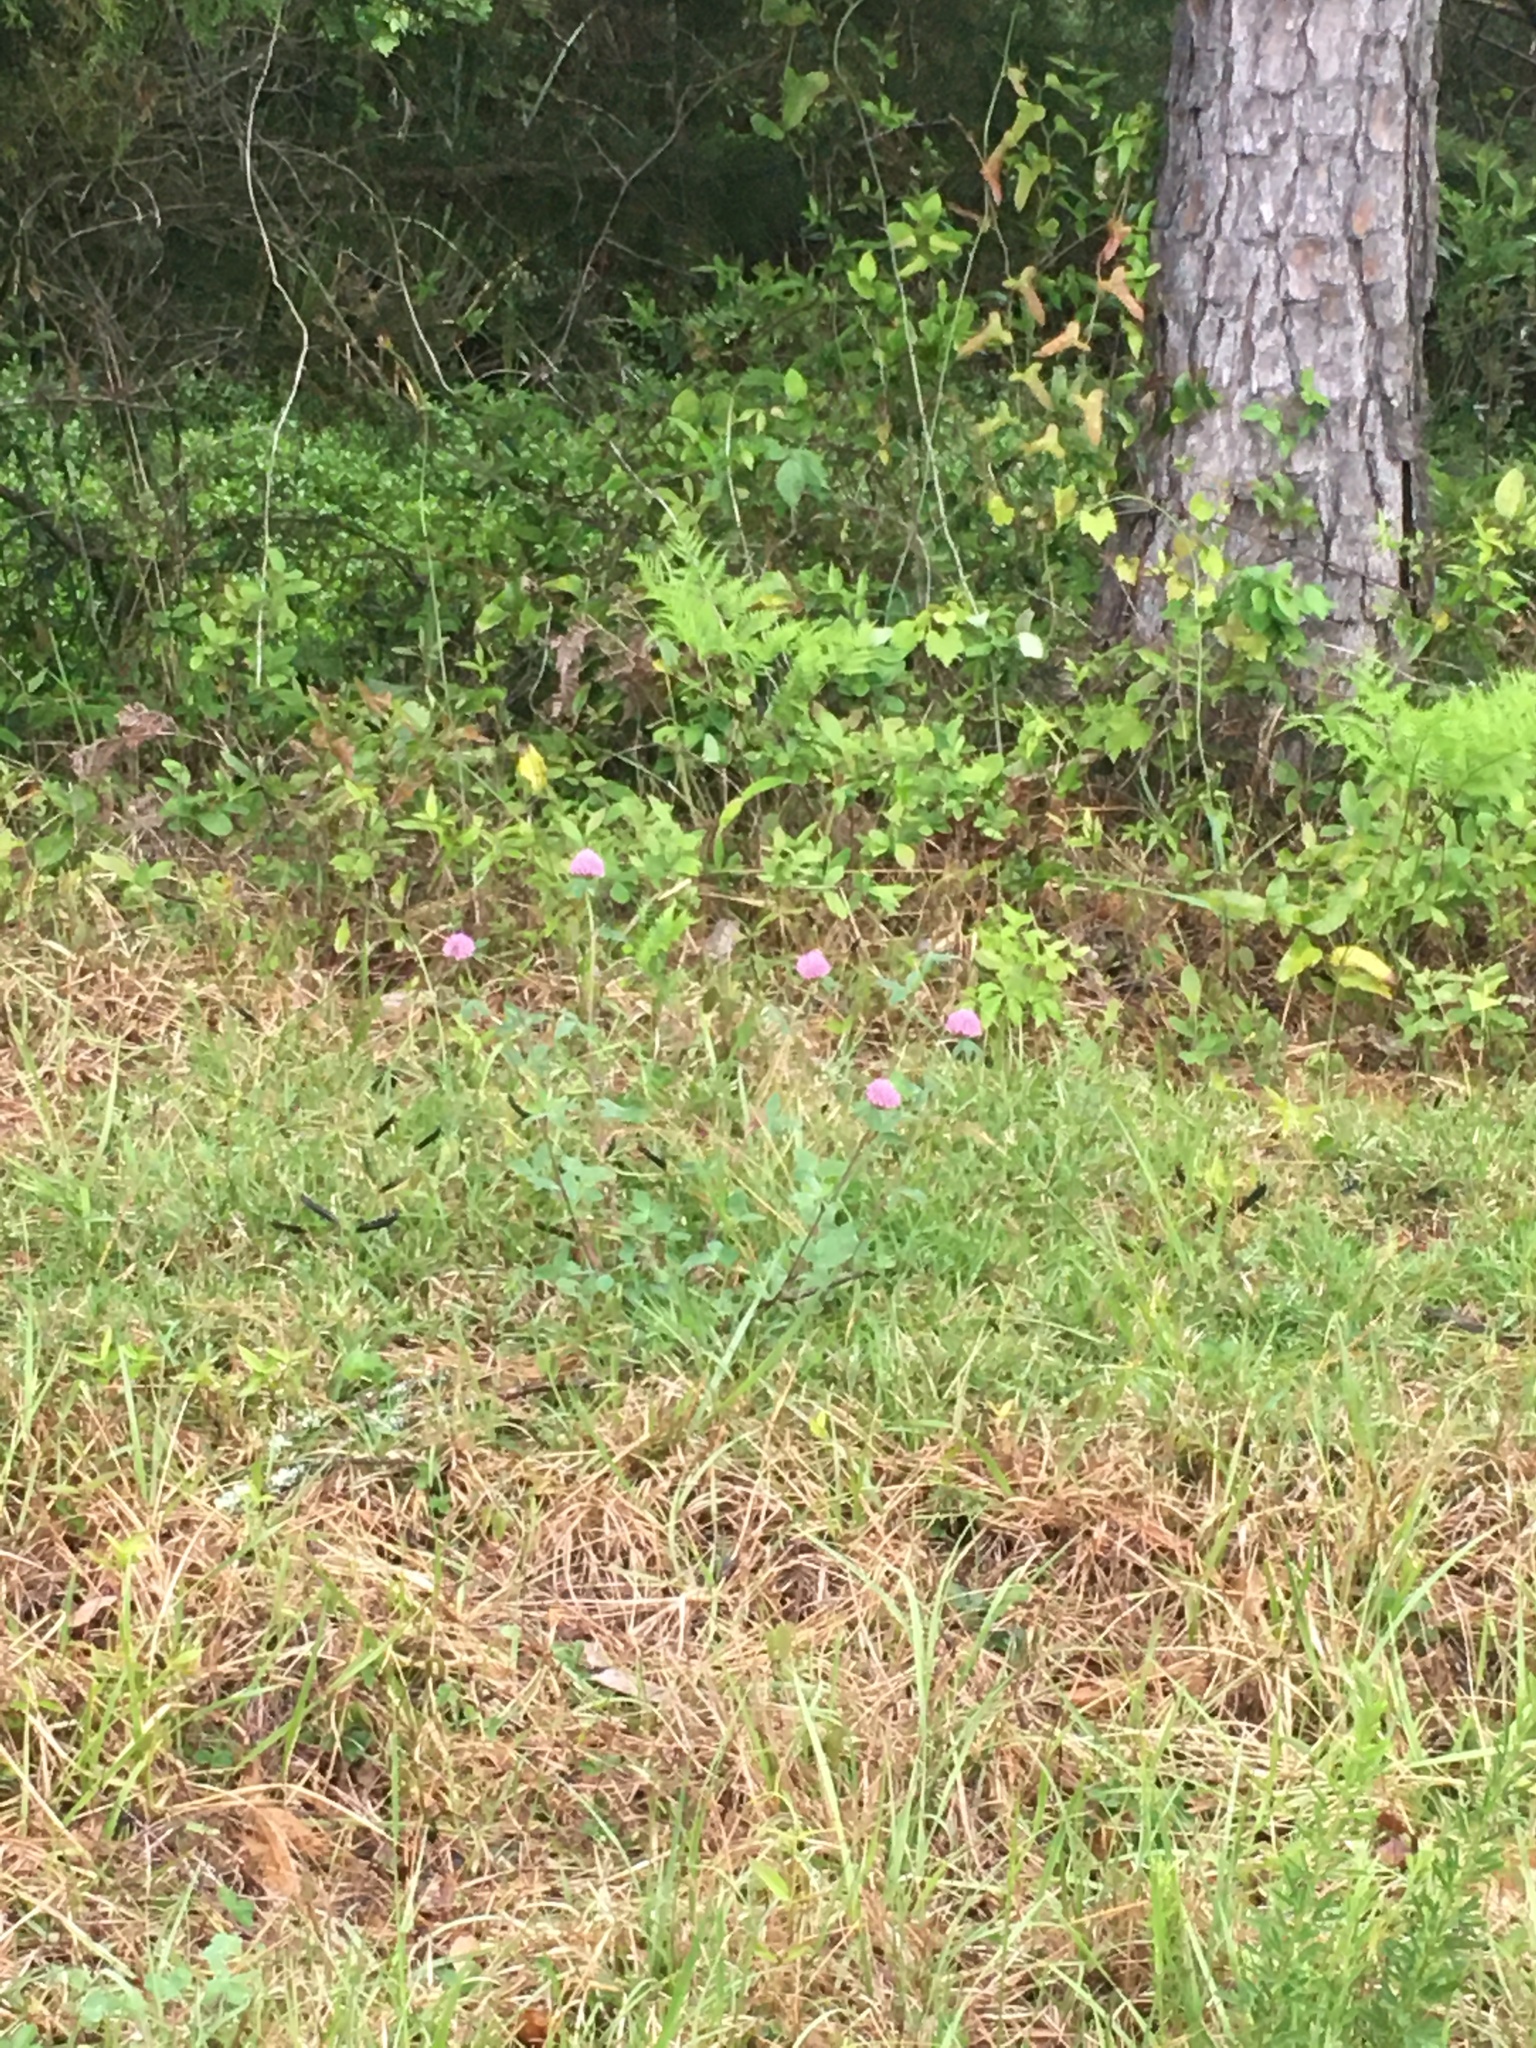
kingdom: Plantae
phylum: Tracheophyta
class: Magnoliopsida
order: Fabales
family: Fabaceae
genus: Trifolium
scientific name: Trifolium pratense
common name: Red clover
